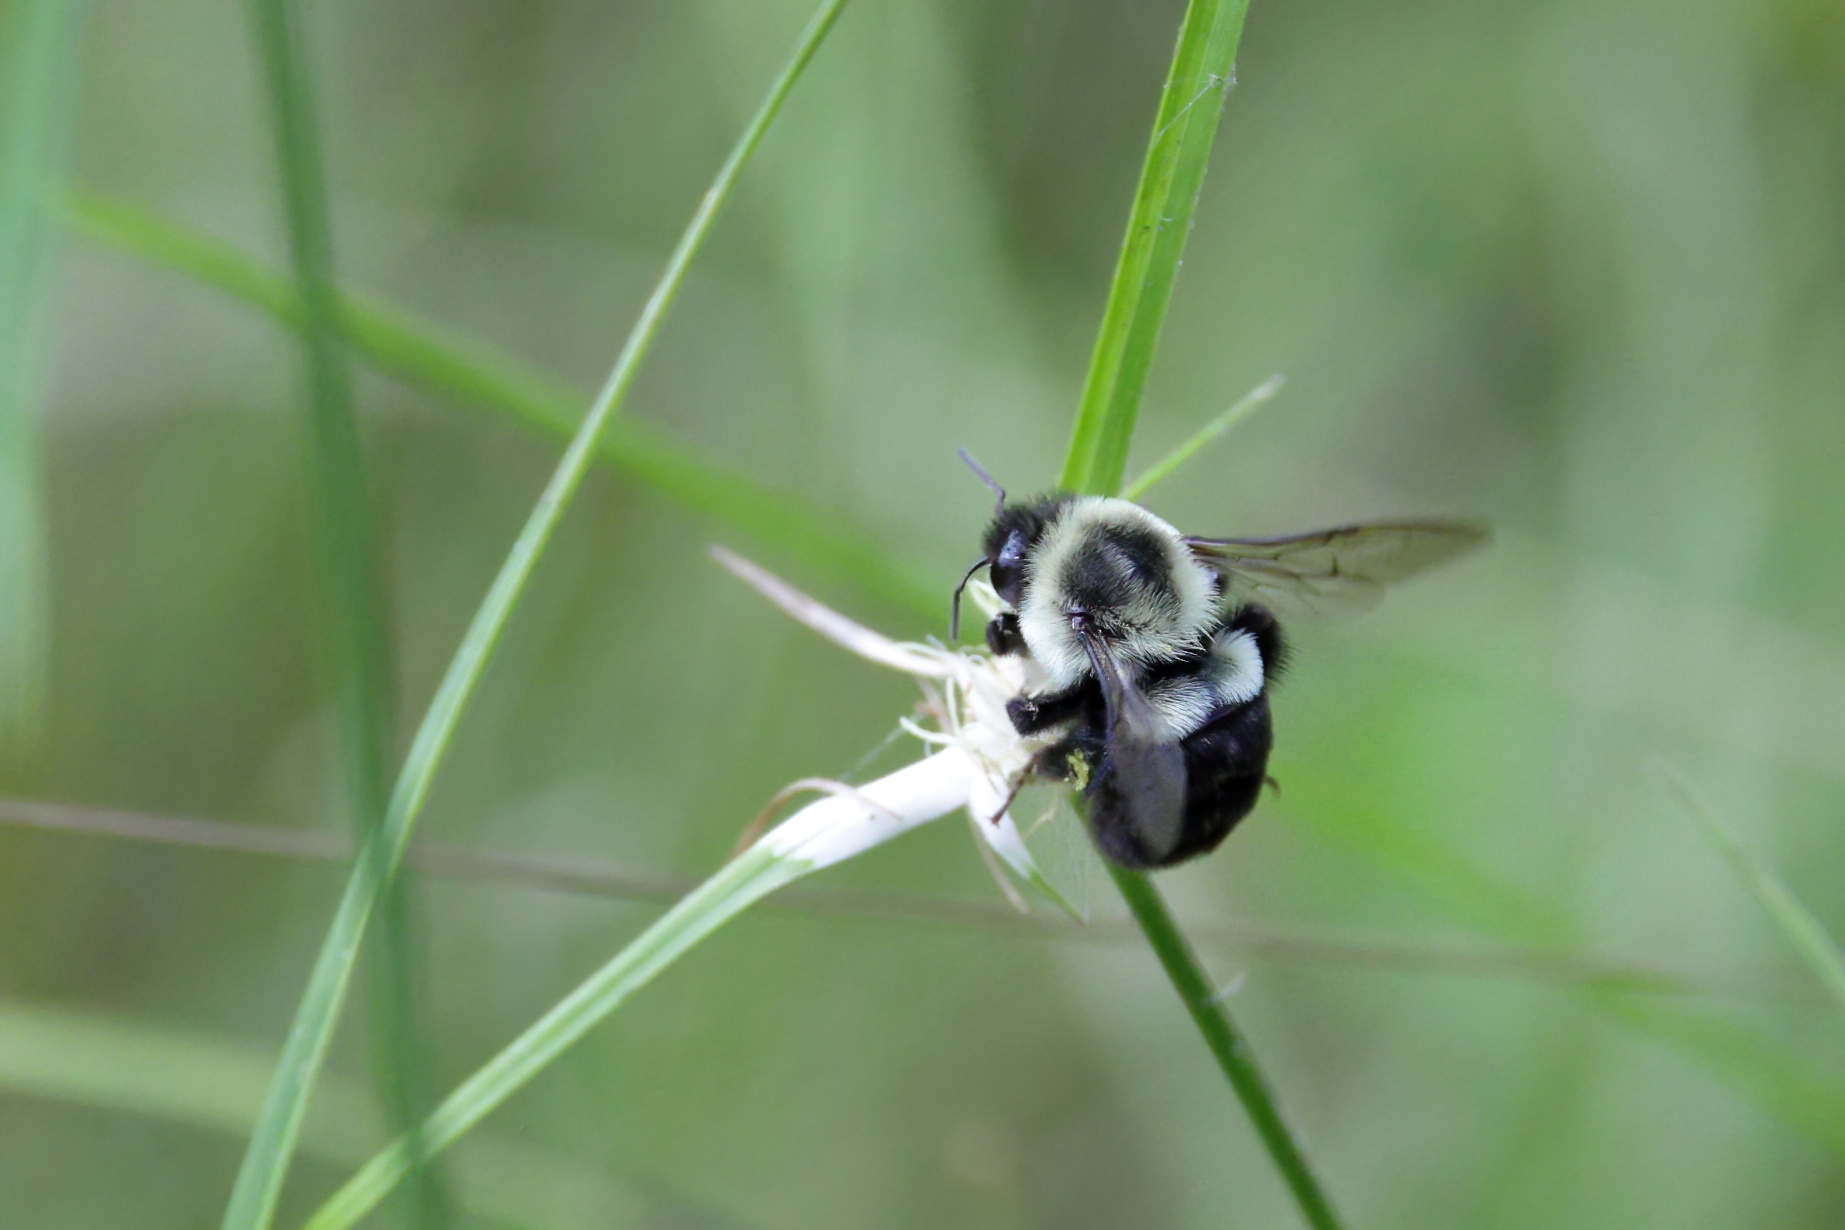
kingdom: Animalia
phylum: Arthropoda
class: Insecta
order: Hymenoptera
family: Apidae
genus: Bombus
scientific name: Bombus impatiens
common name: Common eastern bumble bee
